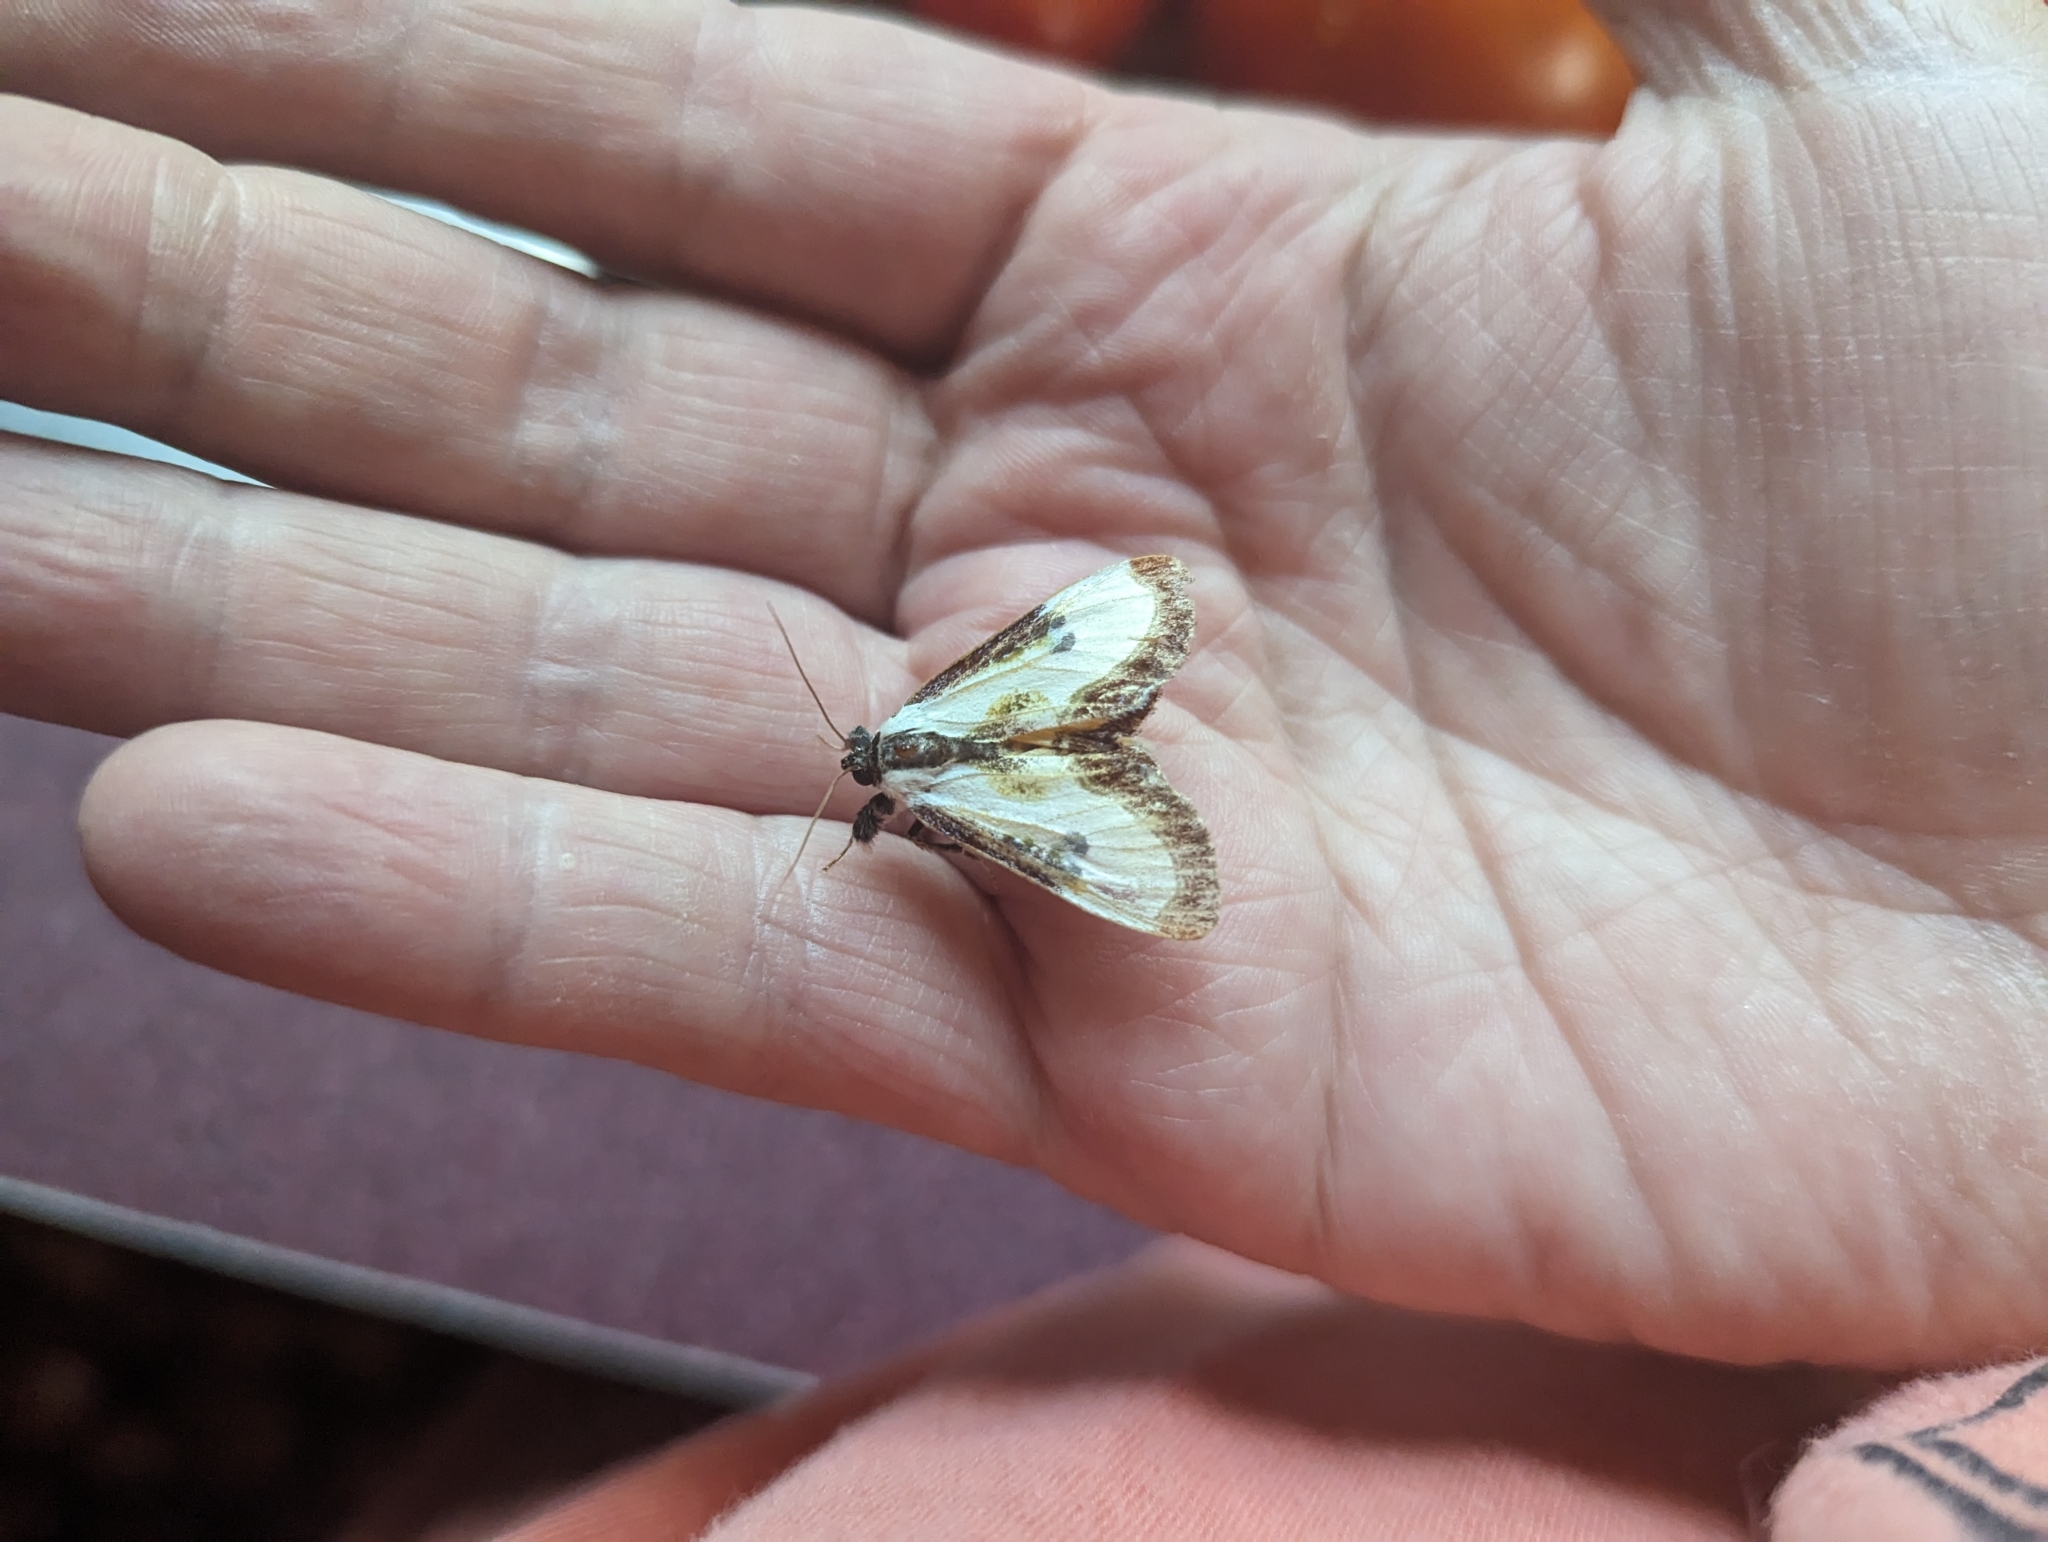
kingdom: Animalia
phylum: Arthropoda
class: Insecta
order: Lepidoptera
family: Noctuidae
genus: Eudryas
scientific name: Eudryas grata
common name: Beautiful wood-nymph
